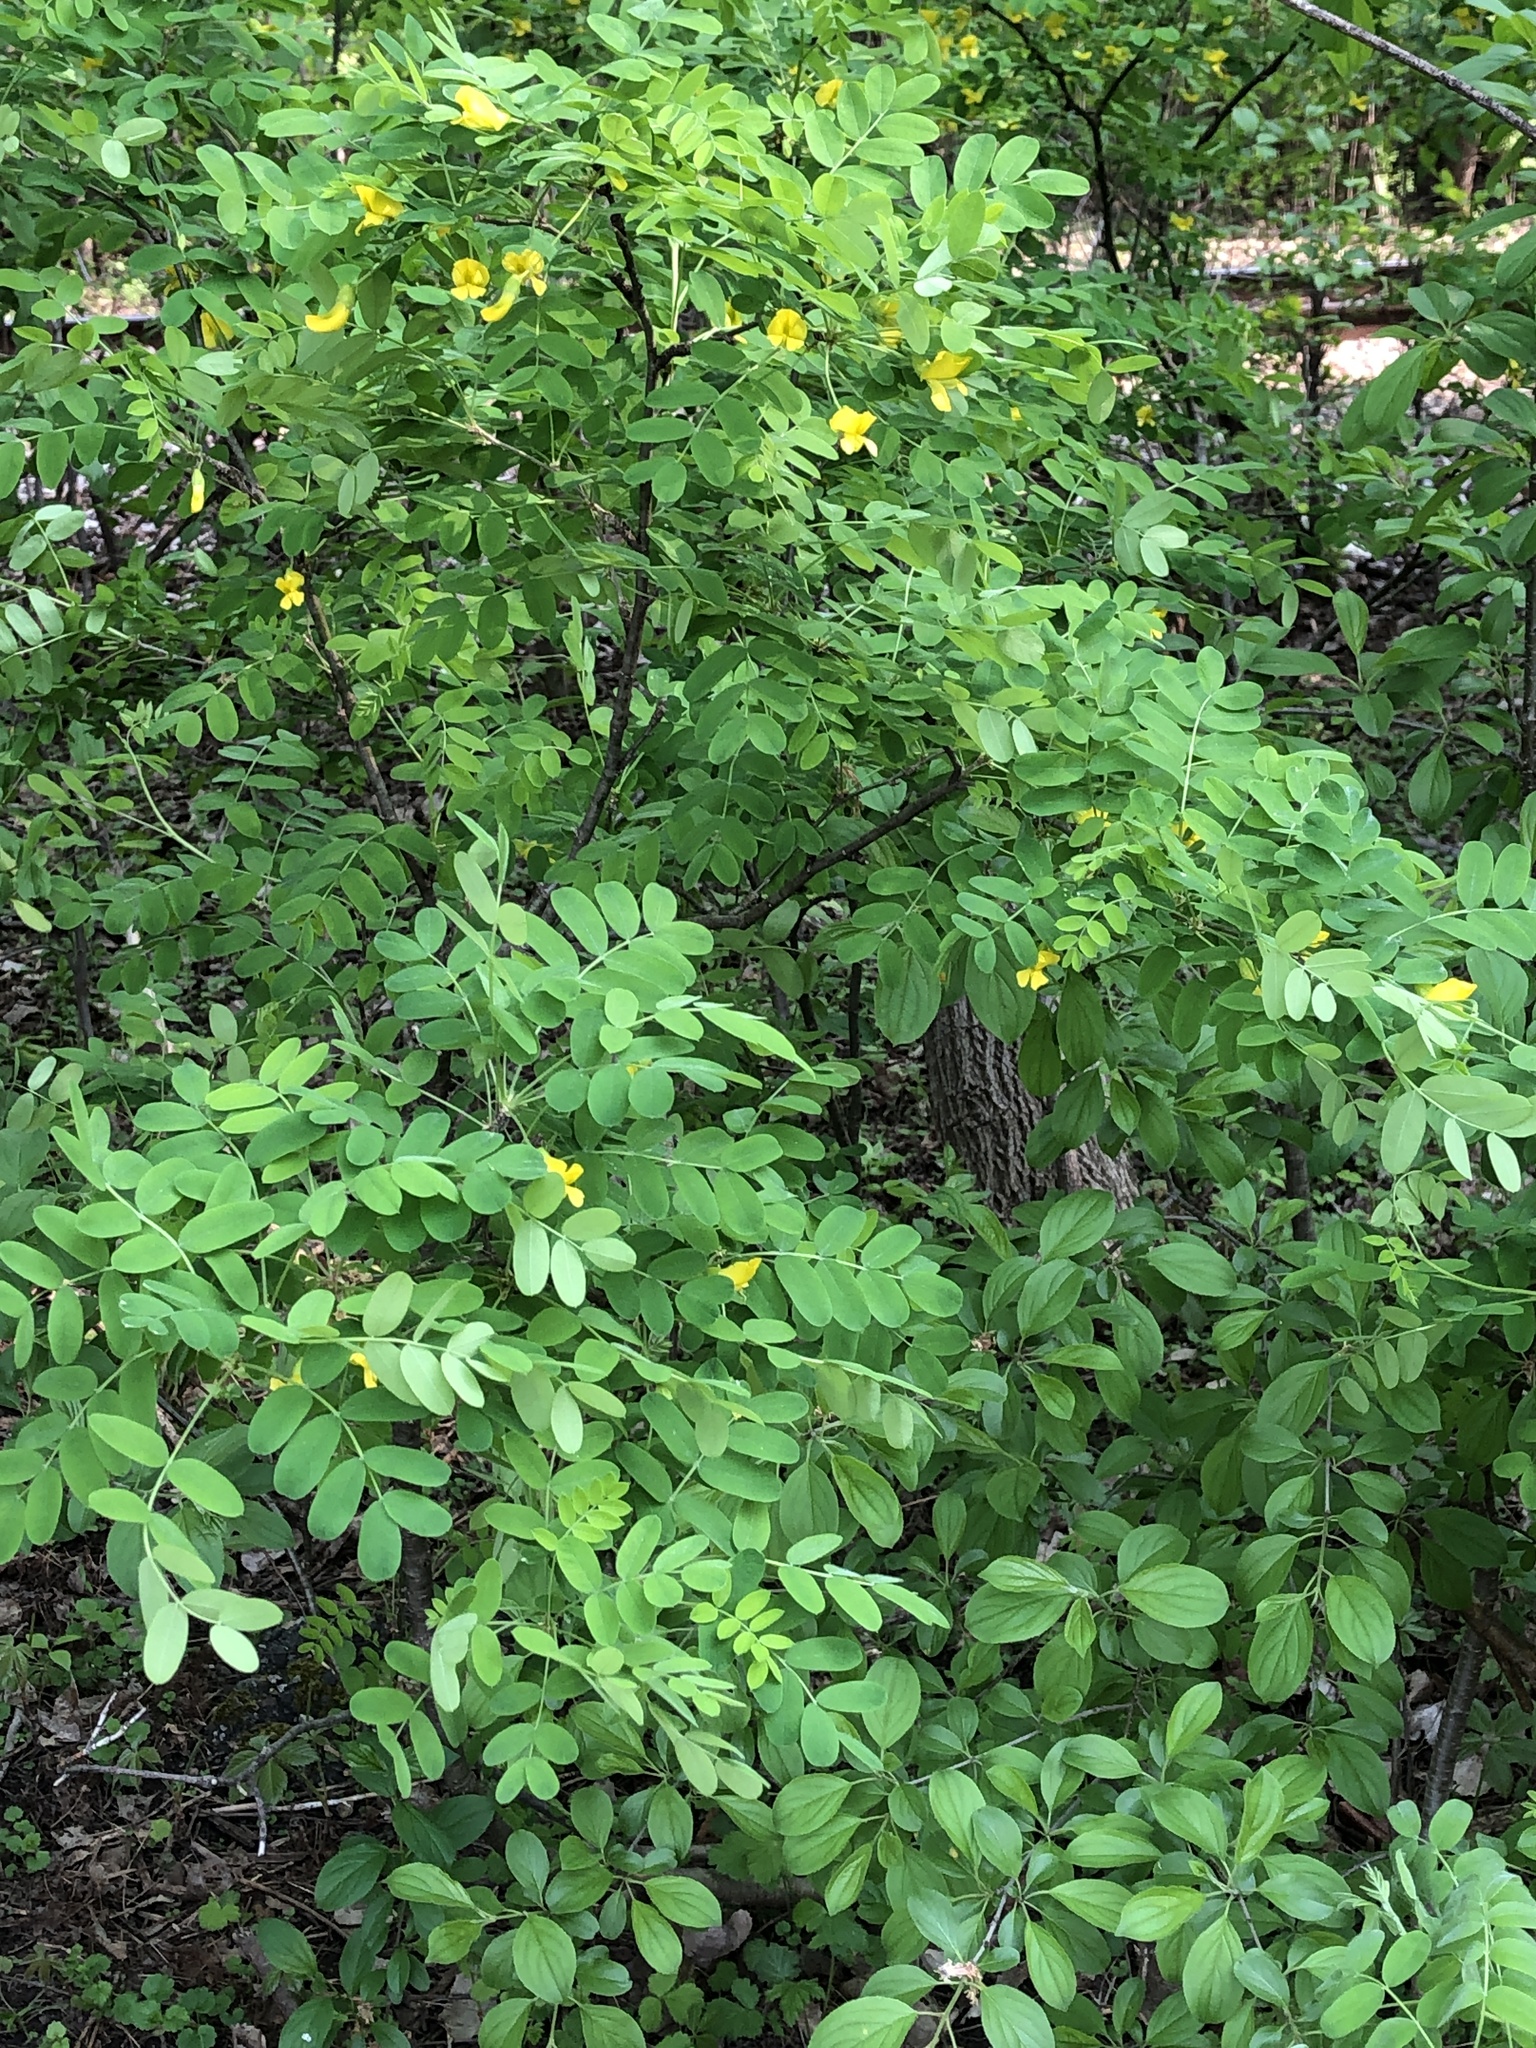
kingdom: Plantae
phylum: Tracheophyta
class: Magnoliopsida
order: Fabales
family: Fabaceae
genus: Caragana
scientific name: Caragana arborescens
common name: Siberian peashrub
